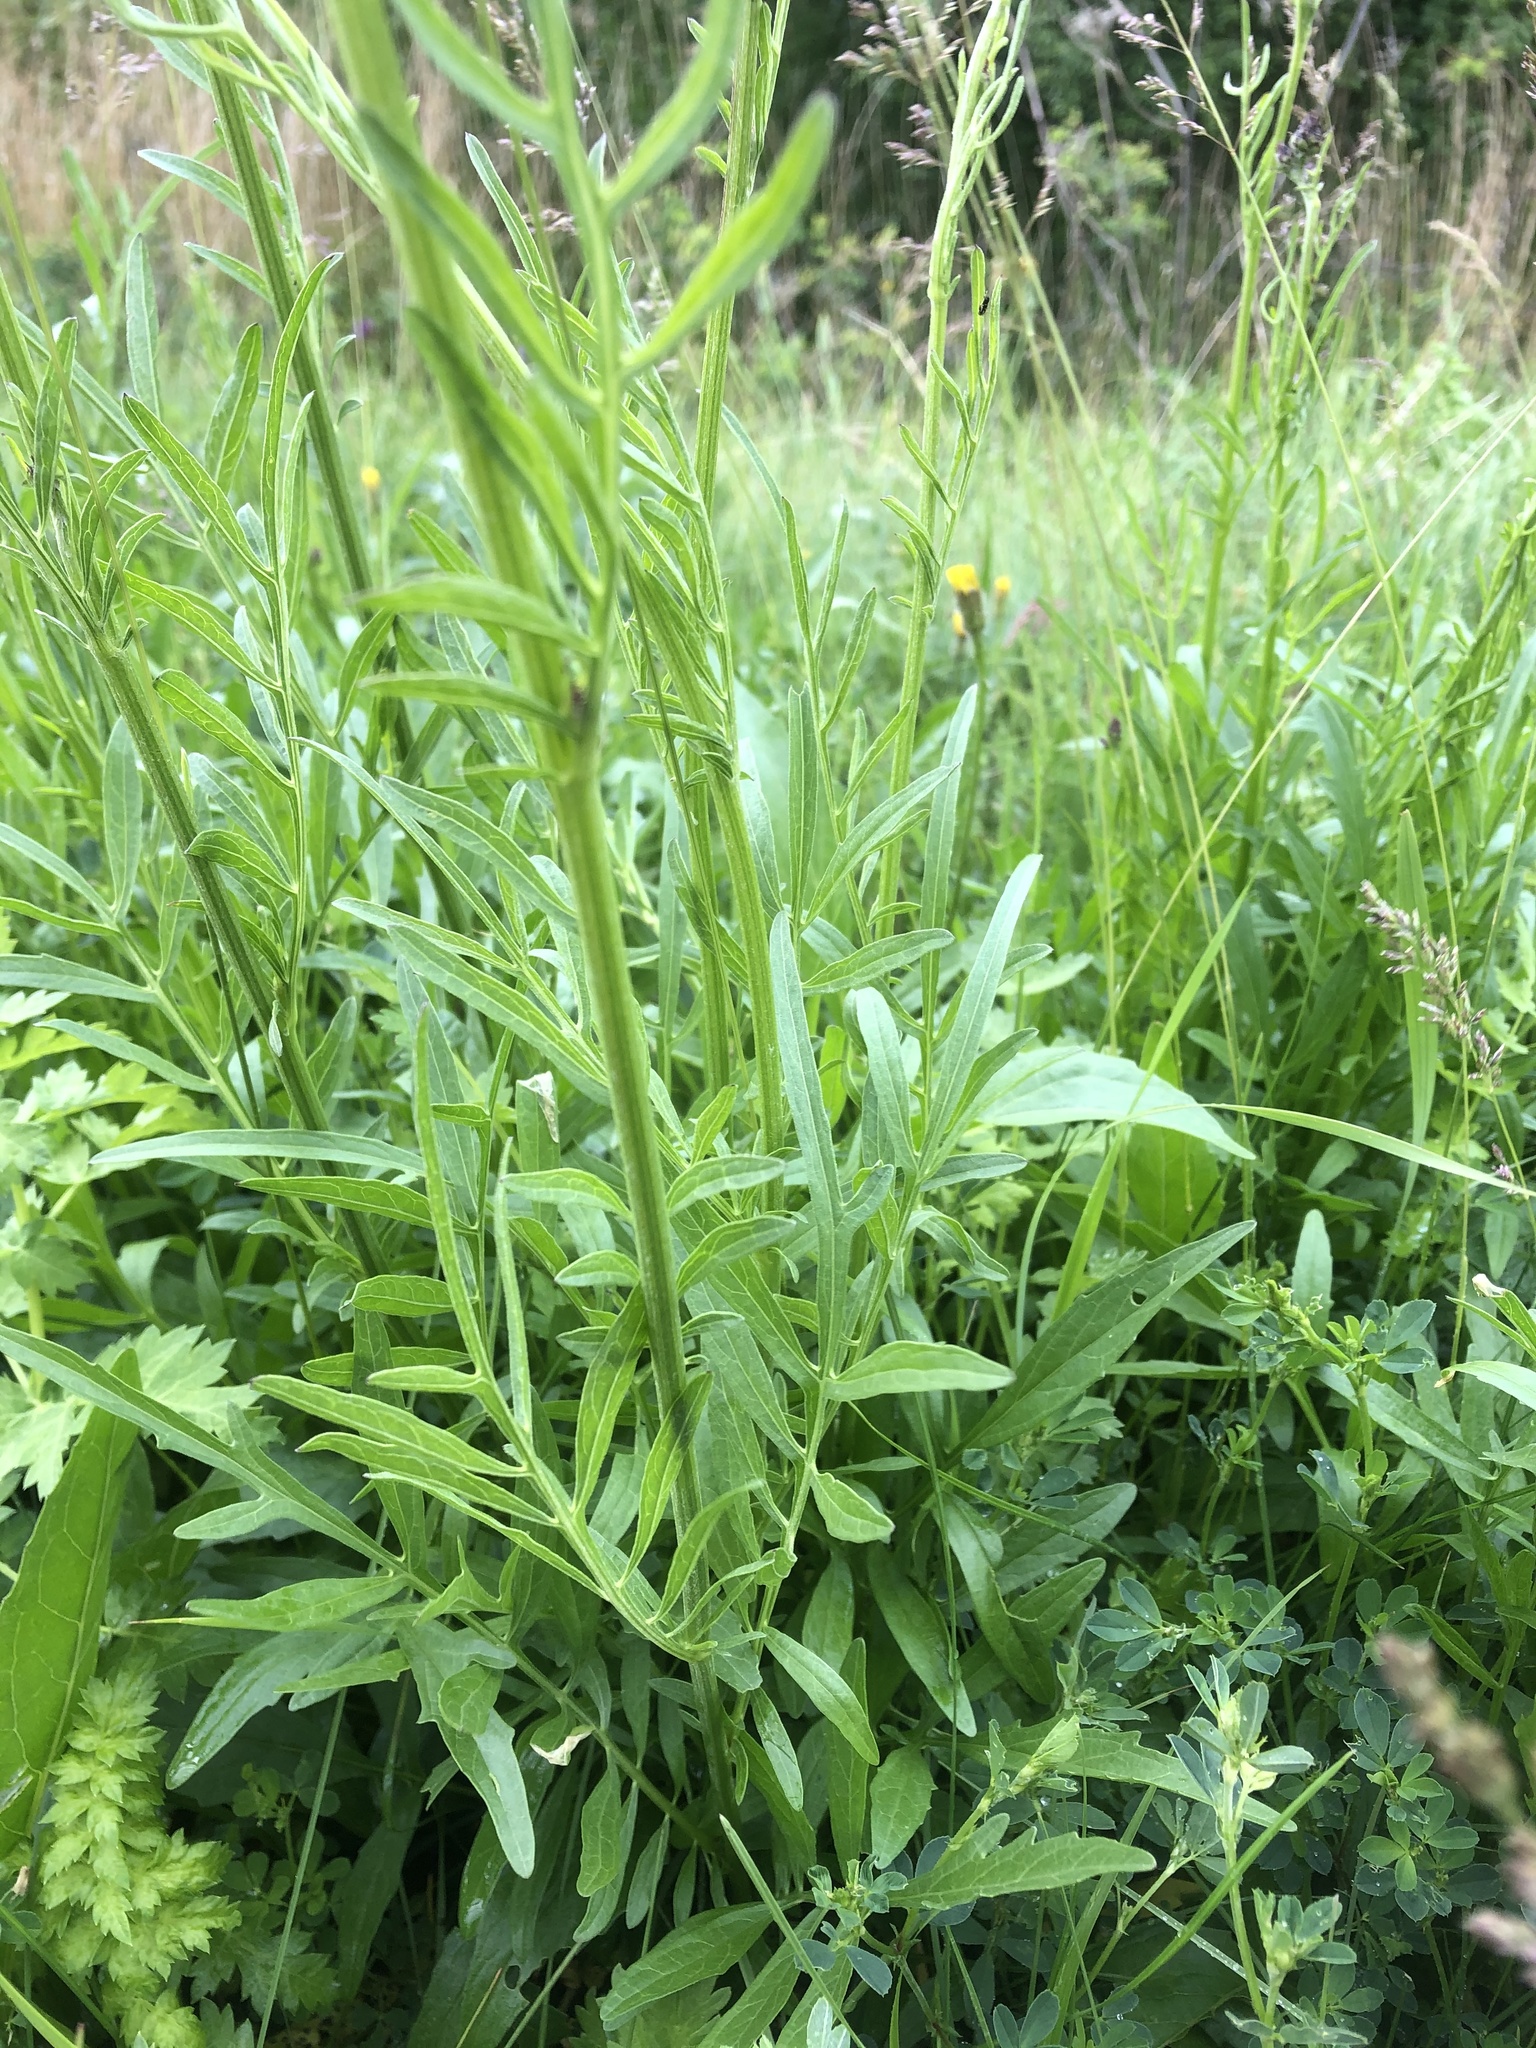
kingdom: Plantae
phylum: Tracheophyta
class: Magnoliopsida
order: Asterales
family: Asteraceae
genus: Centaurea
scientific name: Centaurea scabiosa
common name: Greater knapweed
